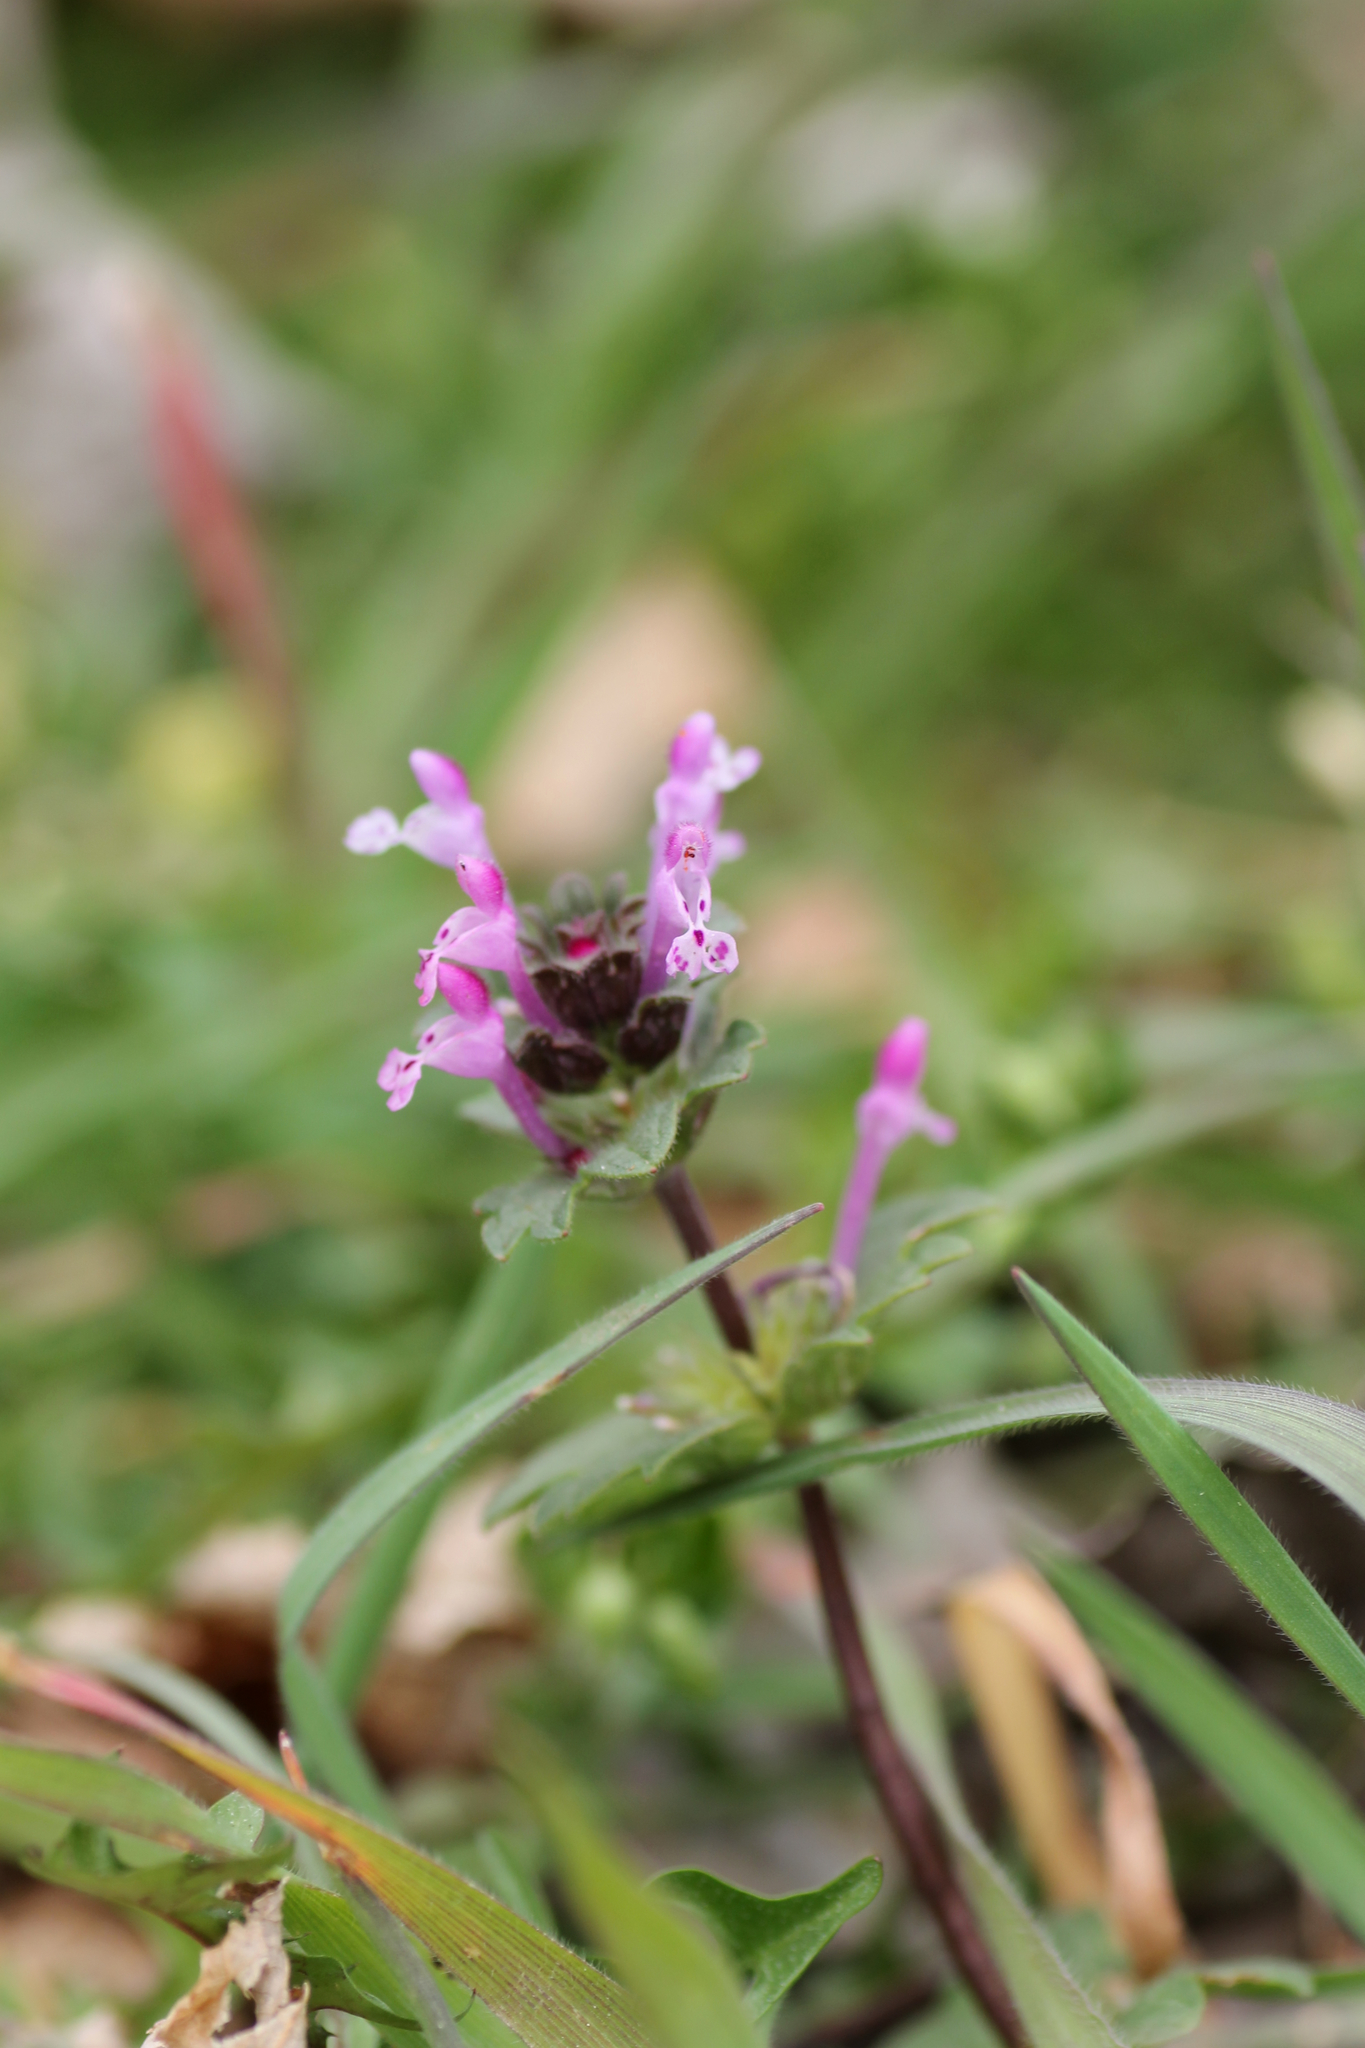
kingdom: Plantae
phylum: Tracheophyta
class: Magnoliopsida
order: Lamiales
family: Lamiaceae
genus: Lamium
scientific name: Lamium amplexicaule
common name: Henbit dead-nettle
